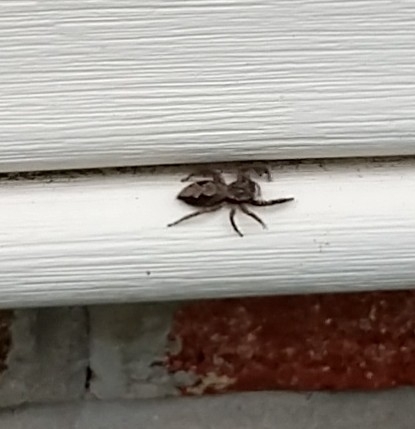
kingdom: Animalia
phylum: Arthropoda
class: Arachnida
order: Araneae
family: Salticidae
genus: Platycryptus
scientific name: Platycryptus undatus
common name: Tan jumping spider
